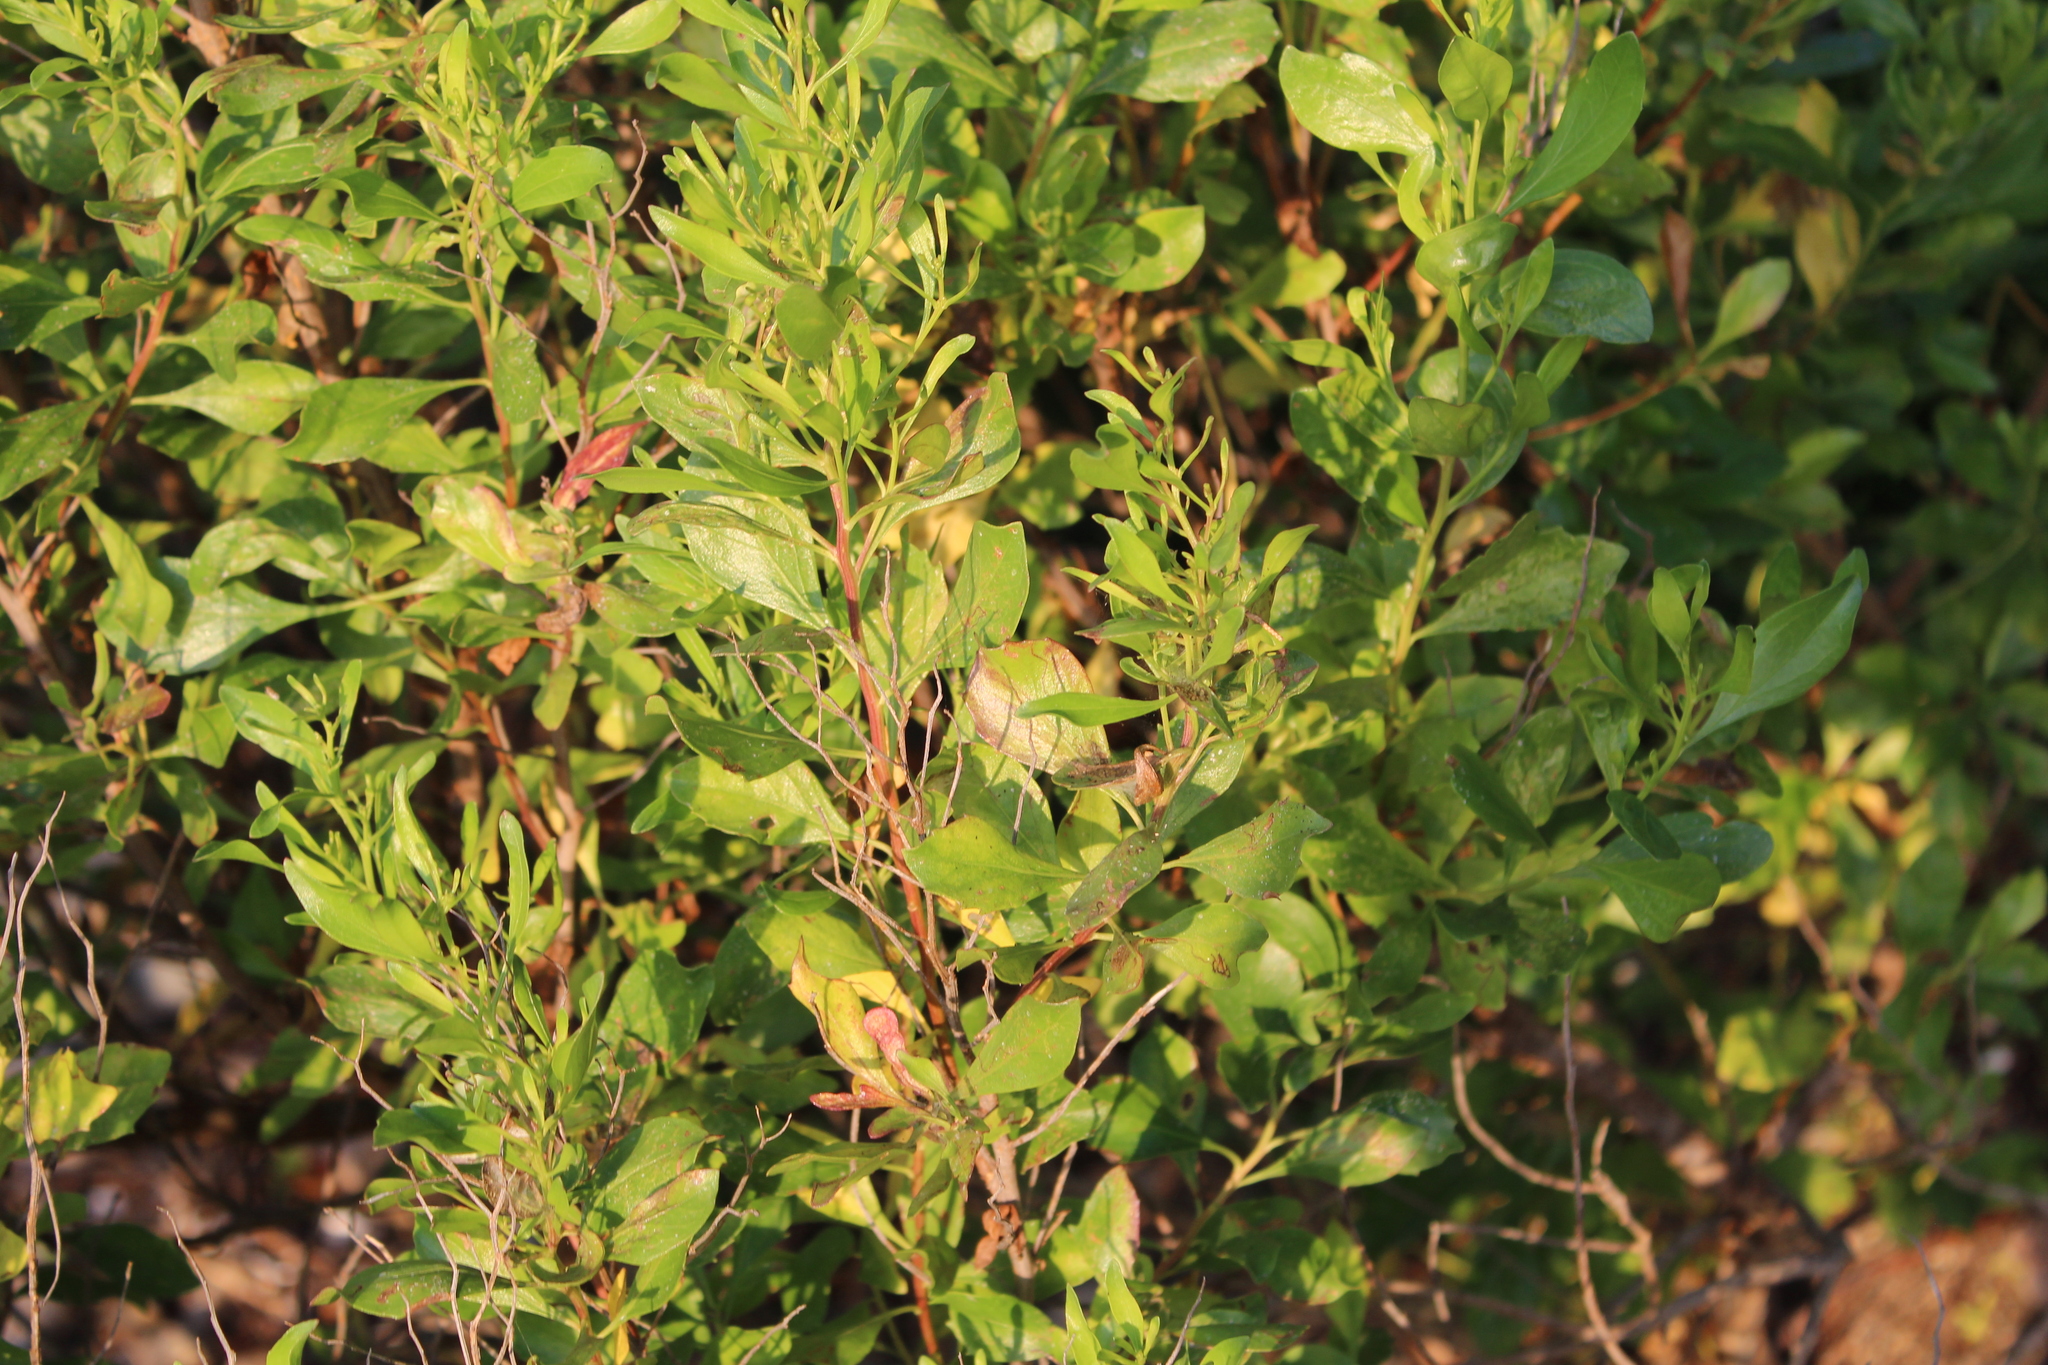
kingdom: Plantae
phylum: Tracheophyta
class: Magnoliopsida
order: Asterales
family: Asteraceae
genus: Baccharis
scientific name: Baccharis halimifolia
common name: Eastern baccharis
